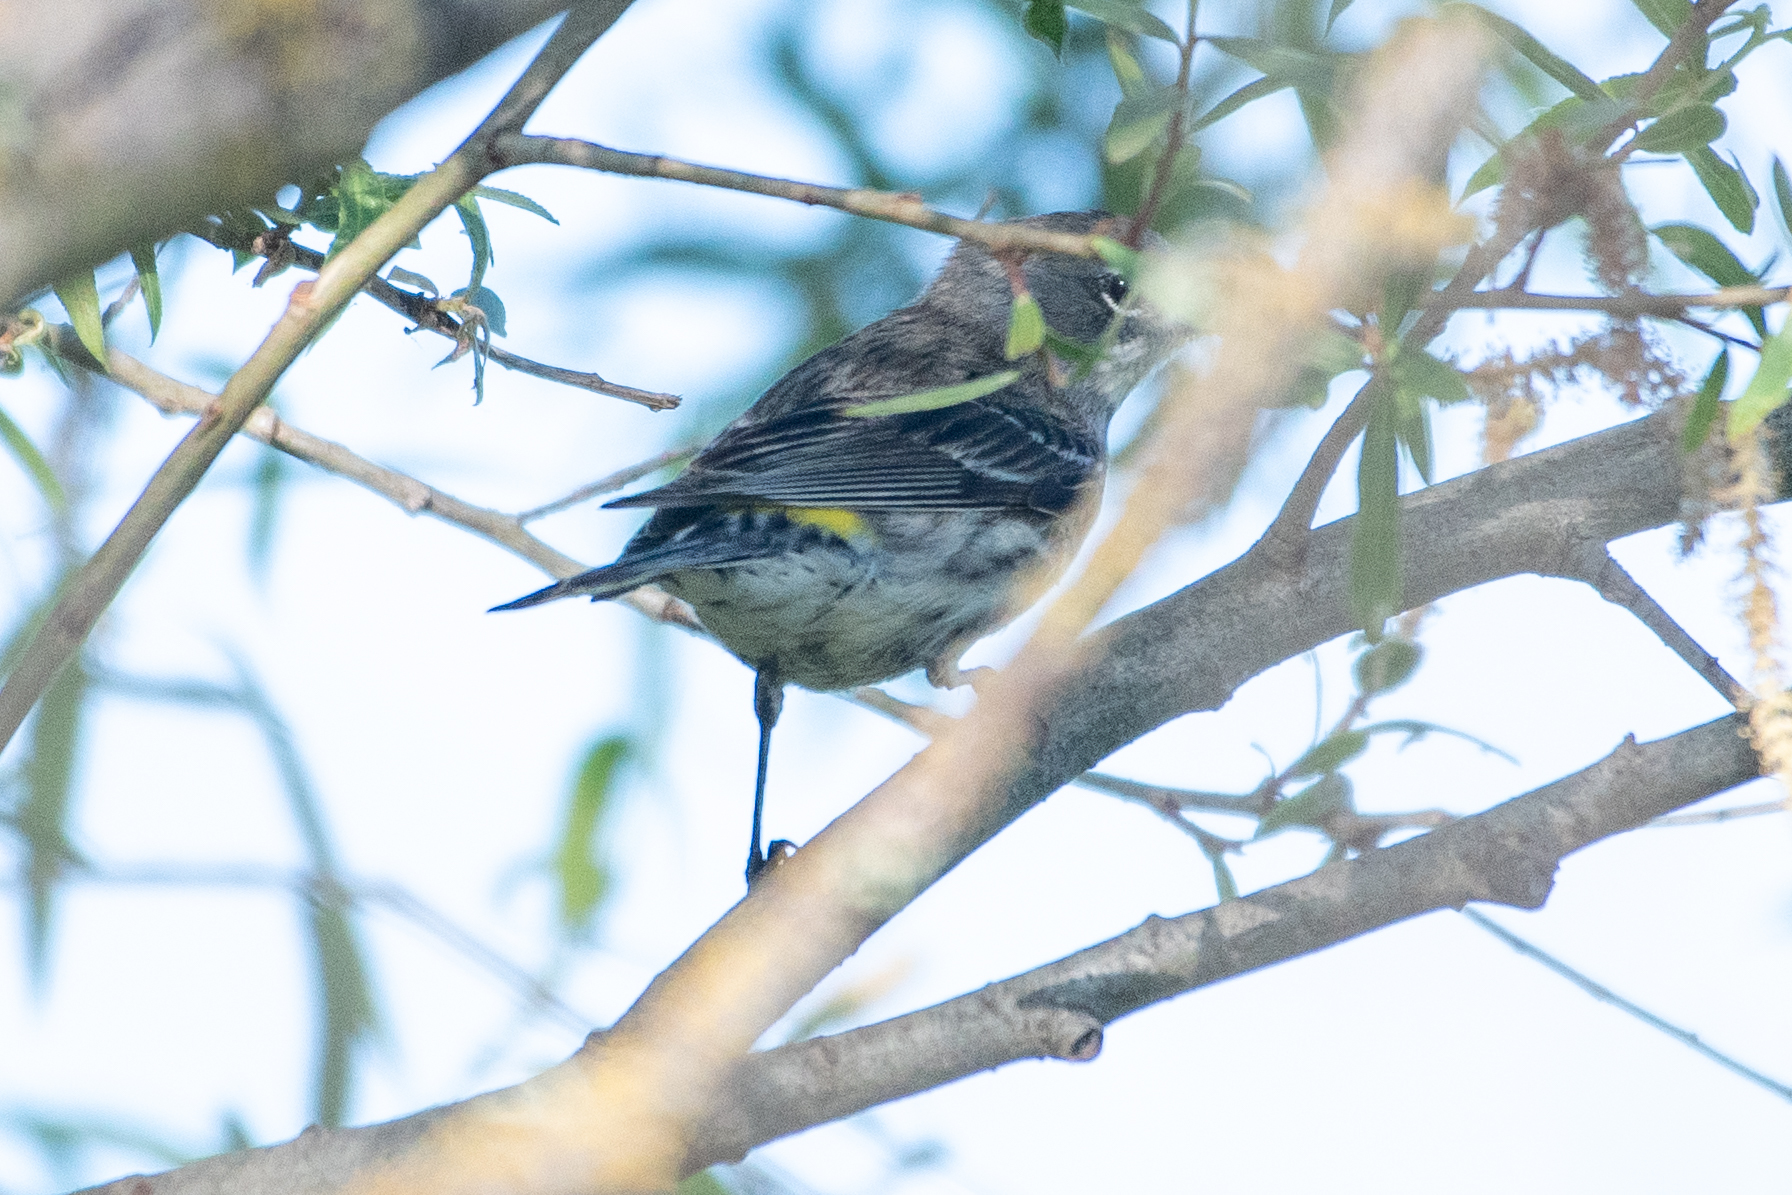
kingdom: Animalia
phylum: Chordata
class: Aves
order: Passeriformes
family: Parulidae
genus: Setophaga
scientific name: Setophaga coronata
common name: Myrtle warbler
